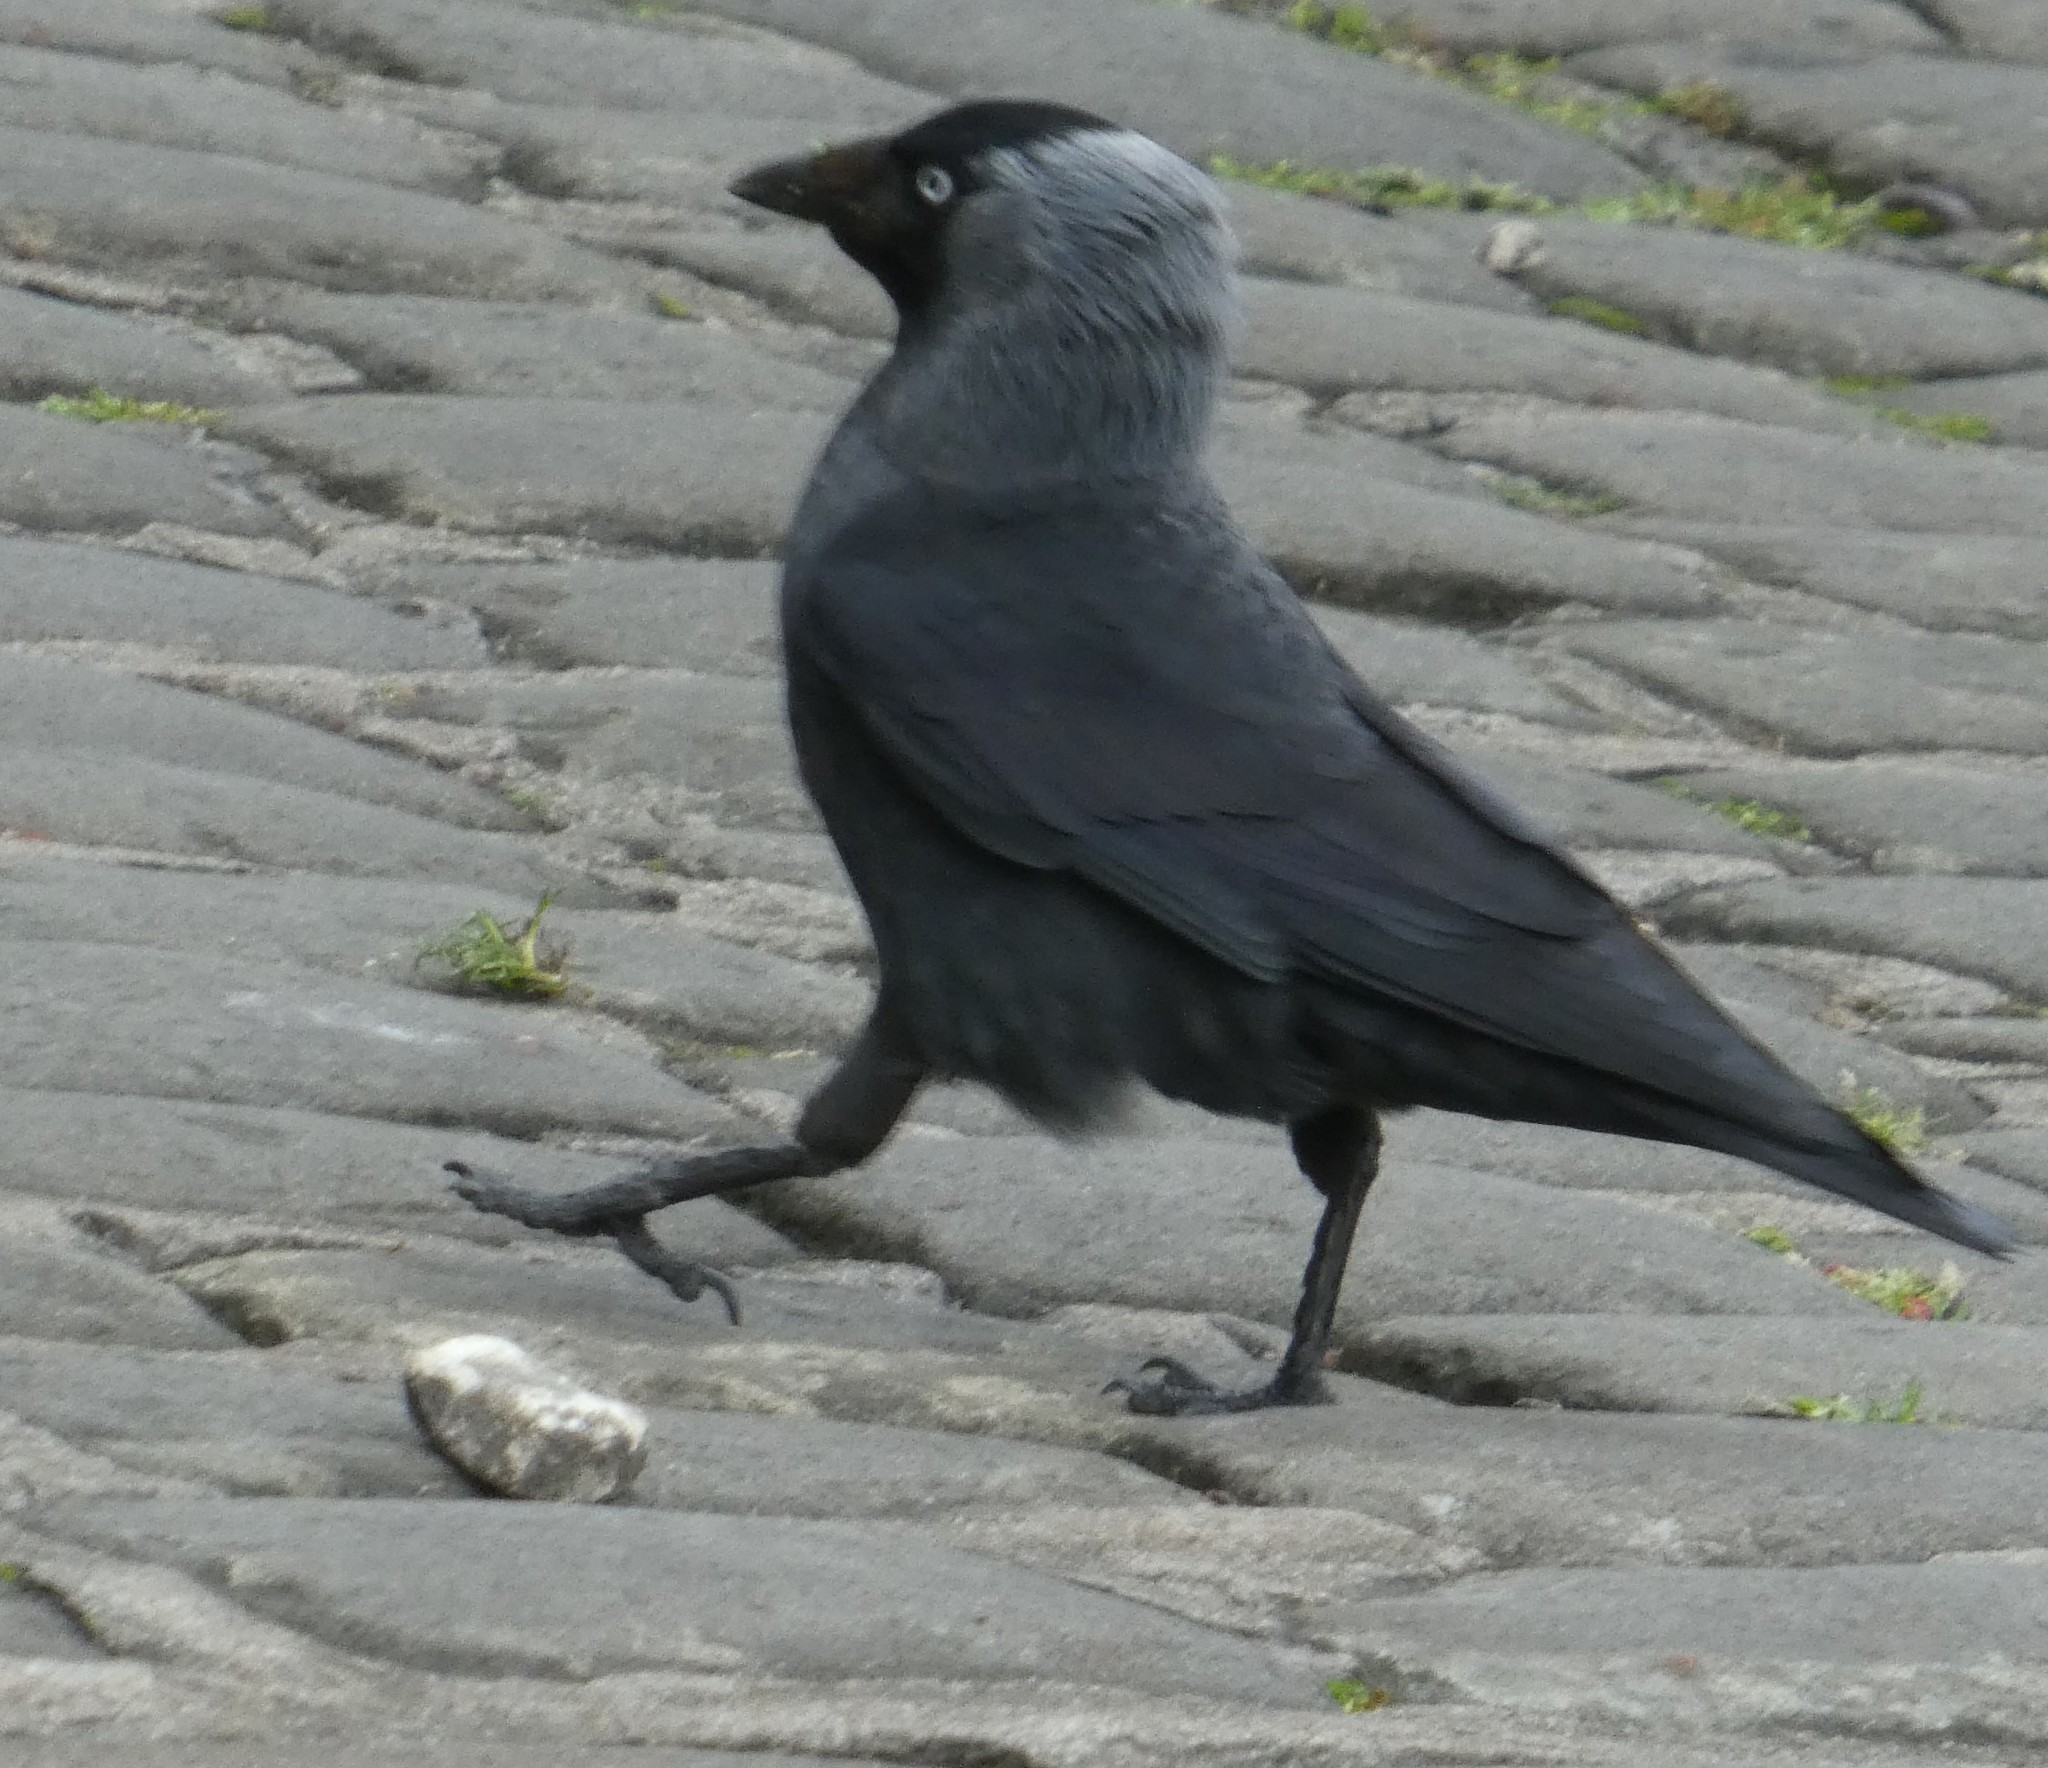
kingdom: Animalia
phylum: Chordata
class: Aves
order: Passeriformes
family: Corvidae
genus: Coloeus
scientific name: Coloeus monedula
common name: Western jackdaw
